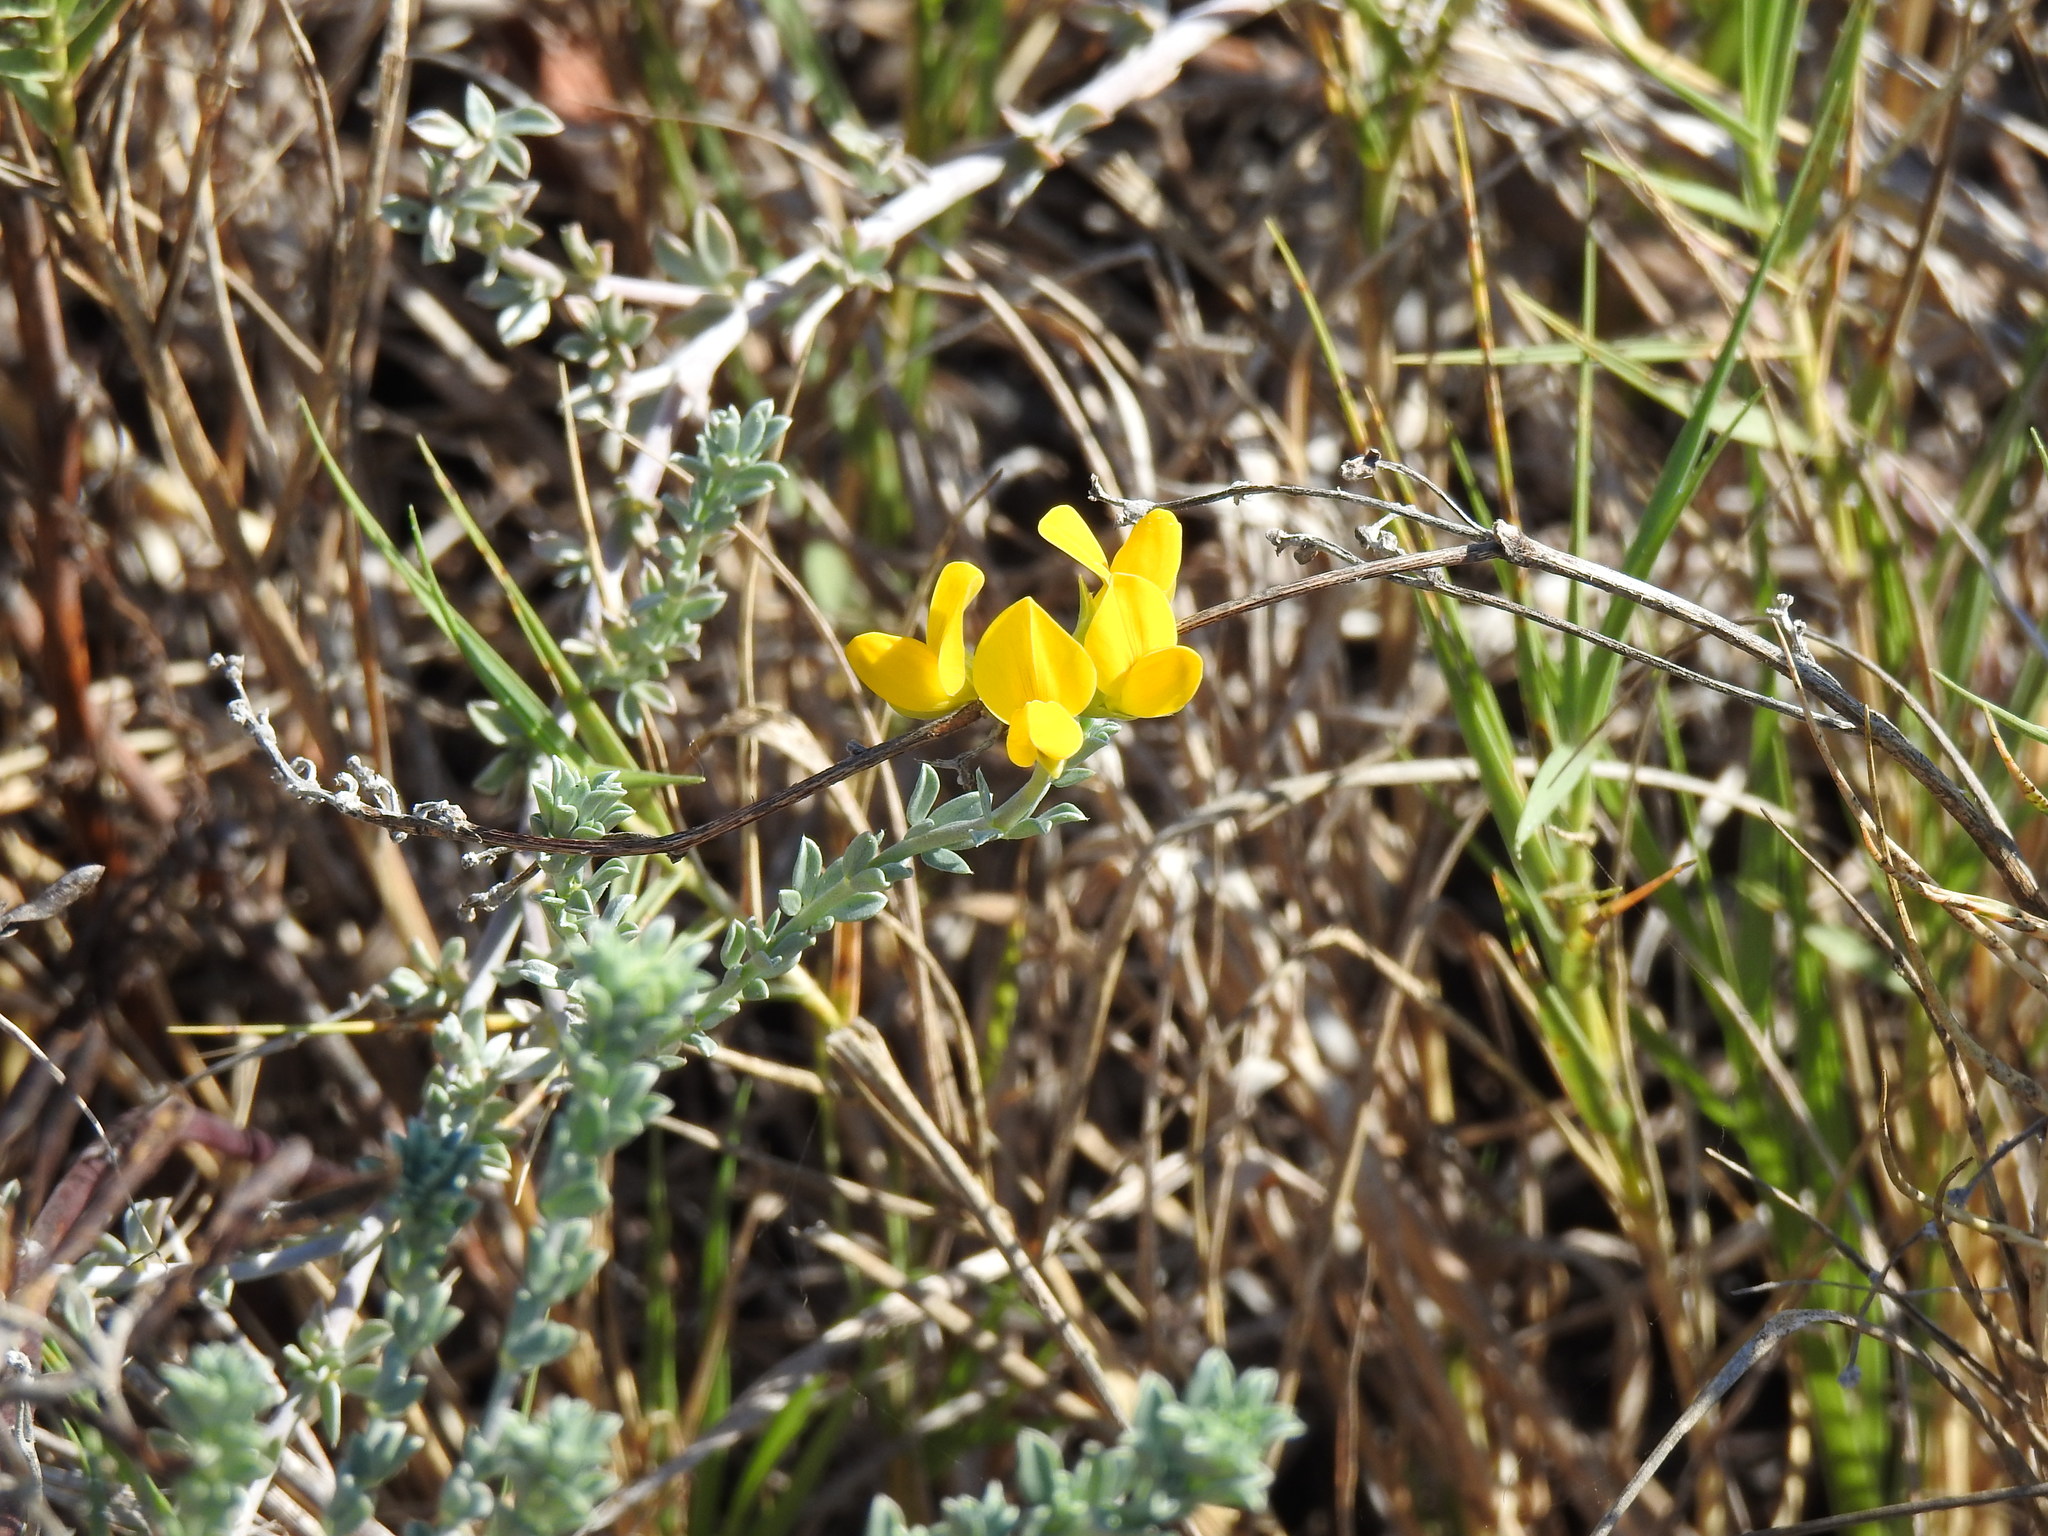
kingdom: Plantae
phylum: Tracheophyta
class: Magnoliopsida
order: Fabales
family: Fabaceae
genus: Lotus
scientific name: Lotus creticus
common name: Cretan bird's-foot trefoil
